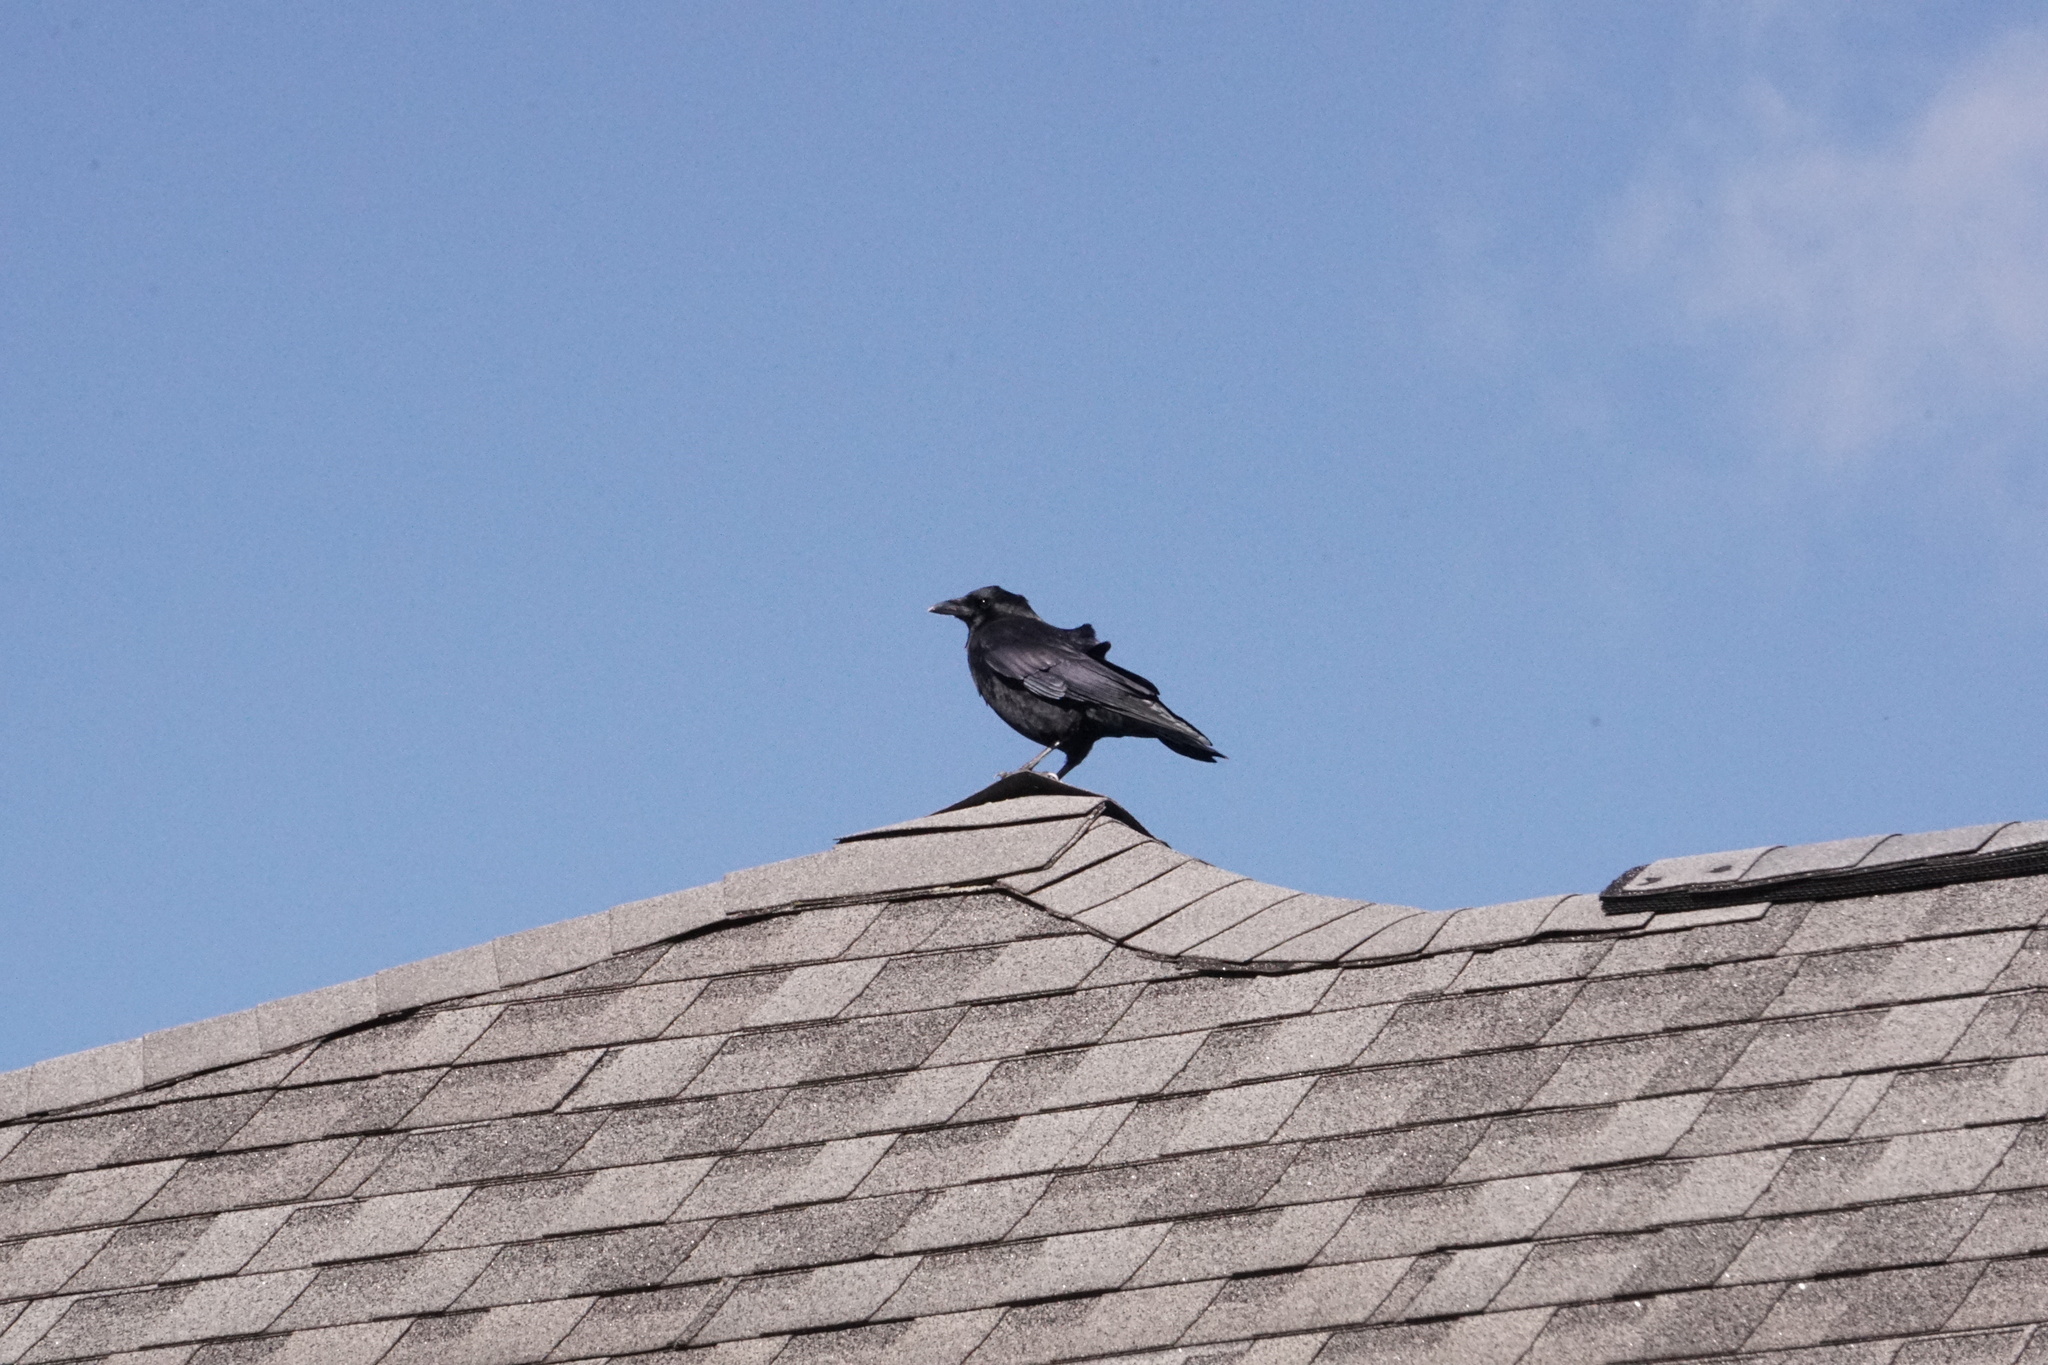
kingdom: Animalia
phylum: Chordata
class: Aves
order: Passeriformes
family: Corvidae
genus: Corvus
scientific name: Corvus brachyrhynchos
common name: American crow
